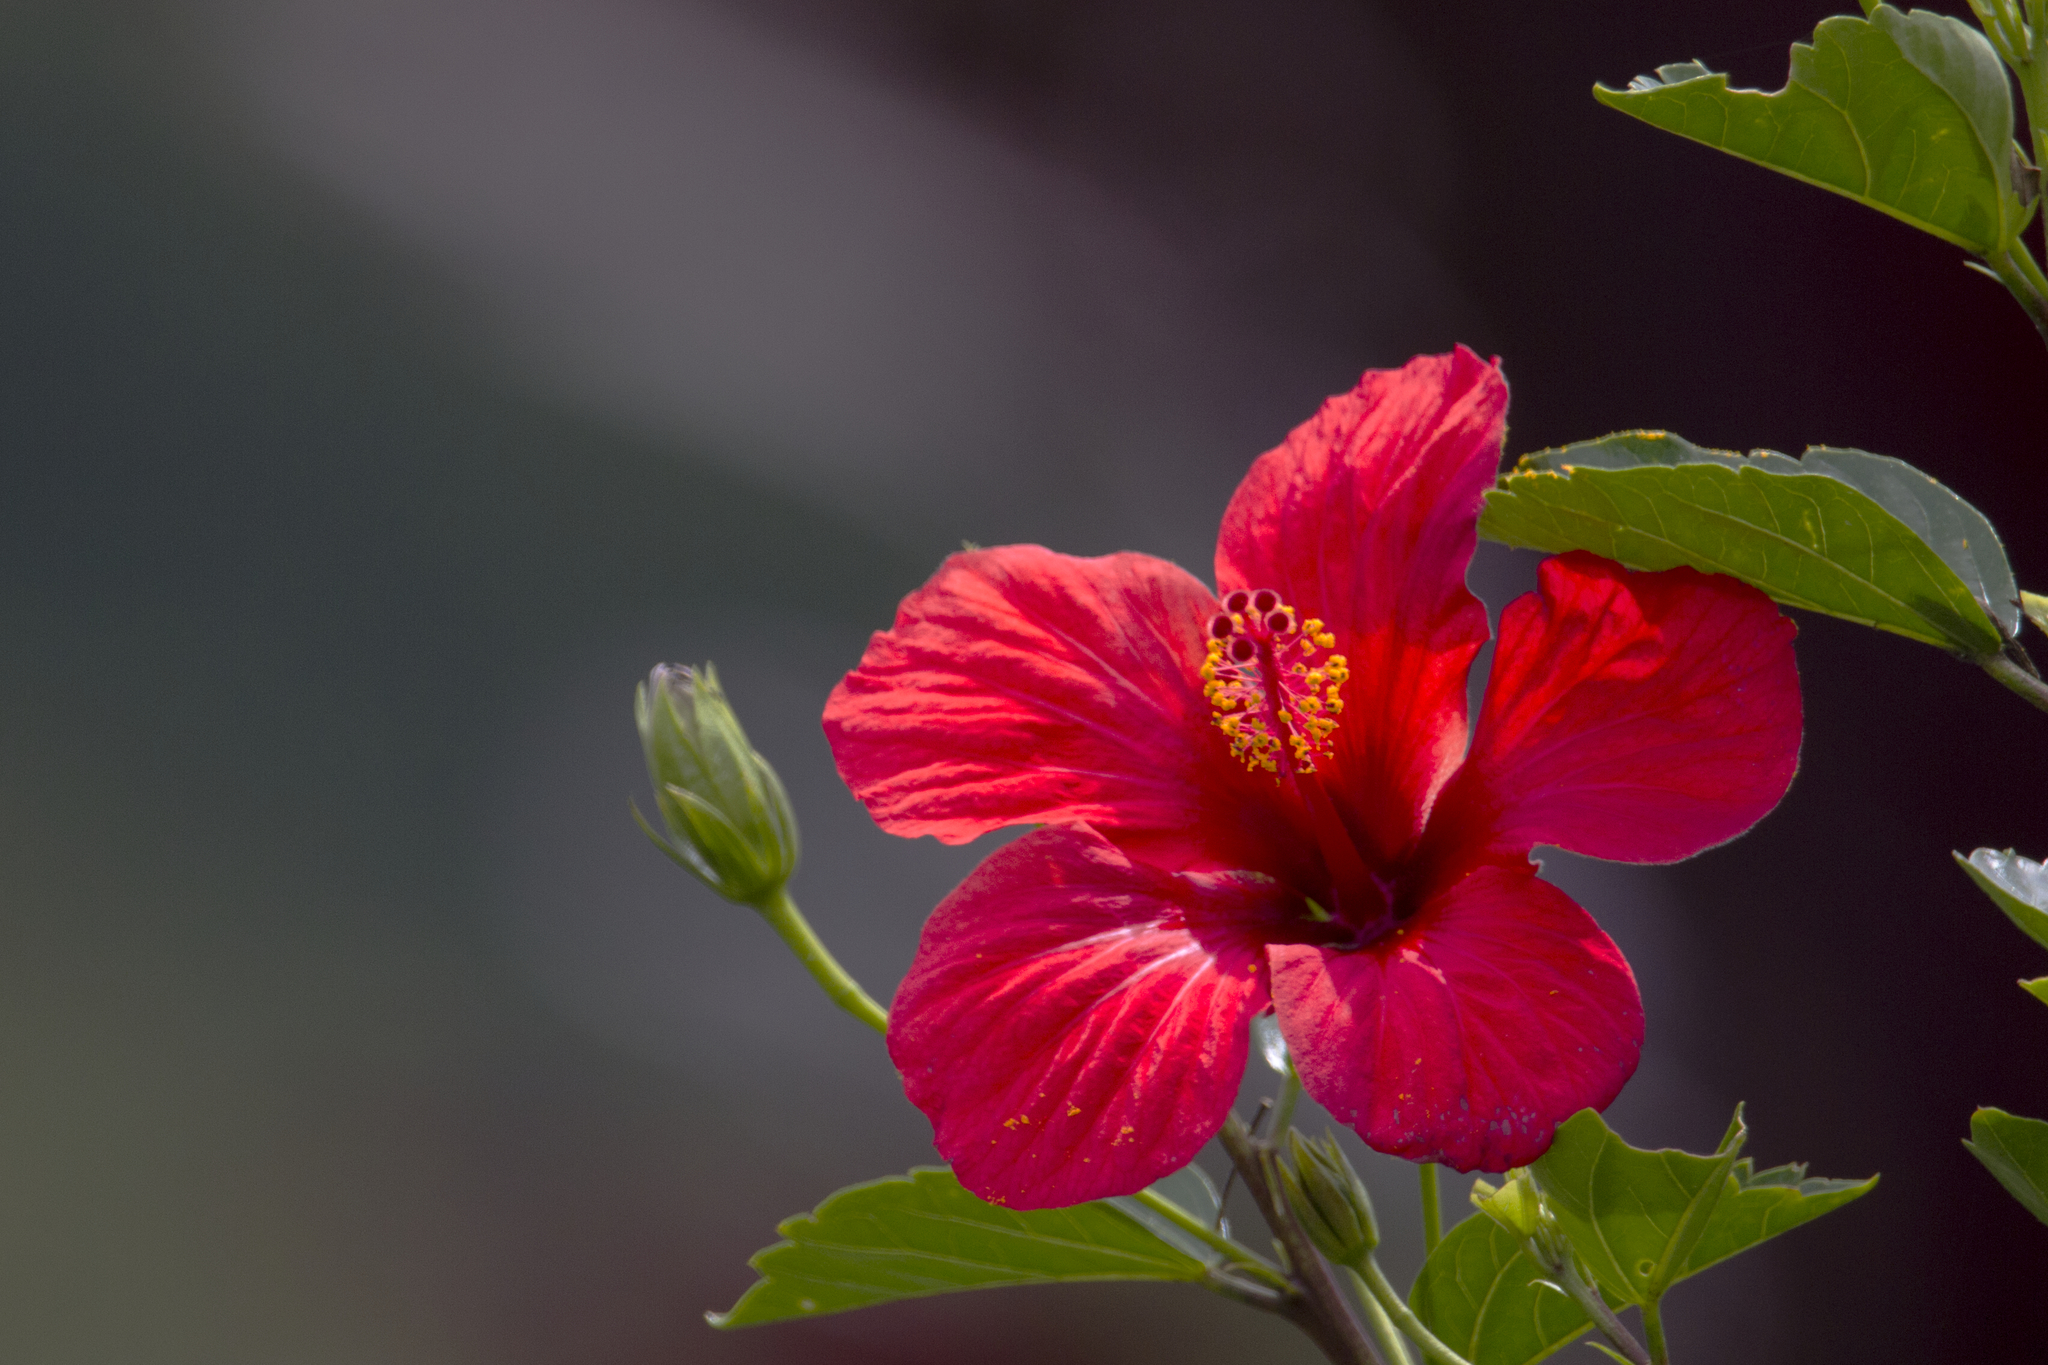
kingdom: Plantae
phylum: Tracheophyta
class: Magnoliopsida
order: Malvales
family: Malvaceae
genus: Hibiscus
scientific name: Hibiscus rosa-sinensis
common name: Hibiscus
